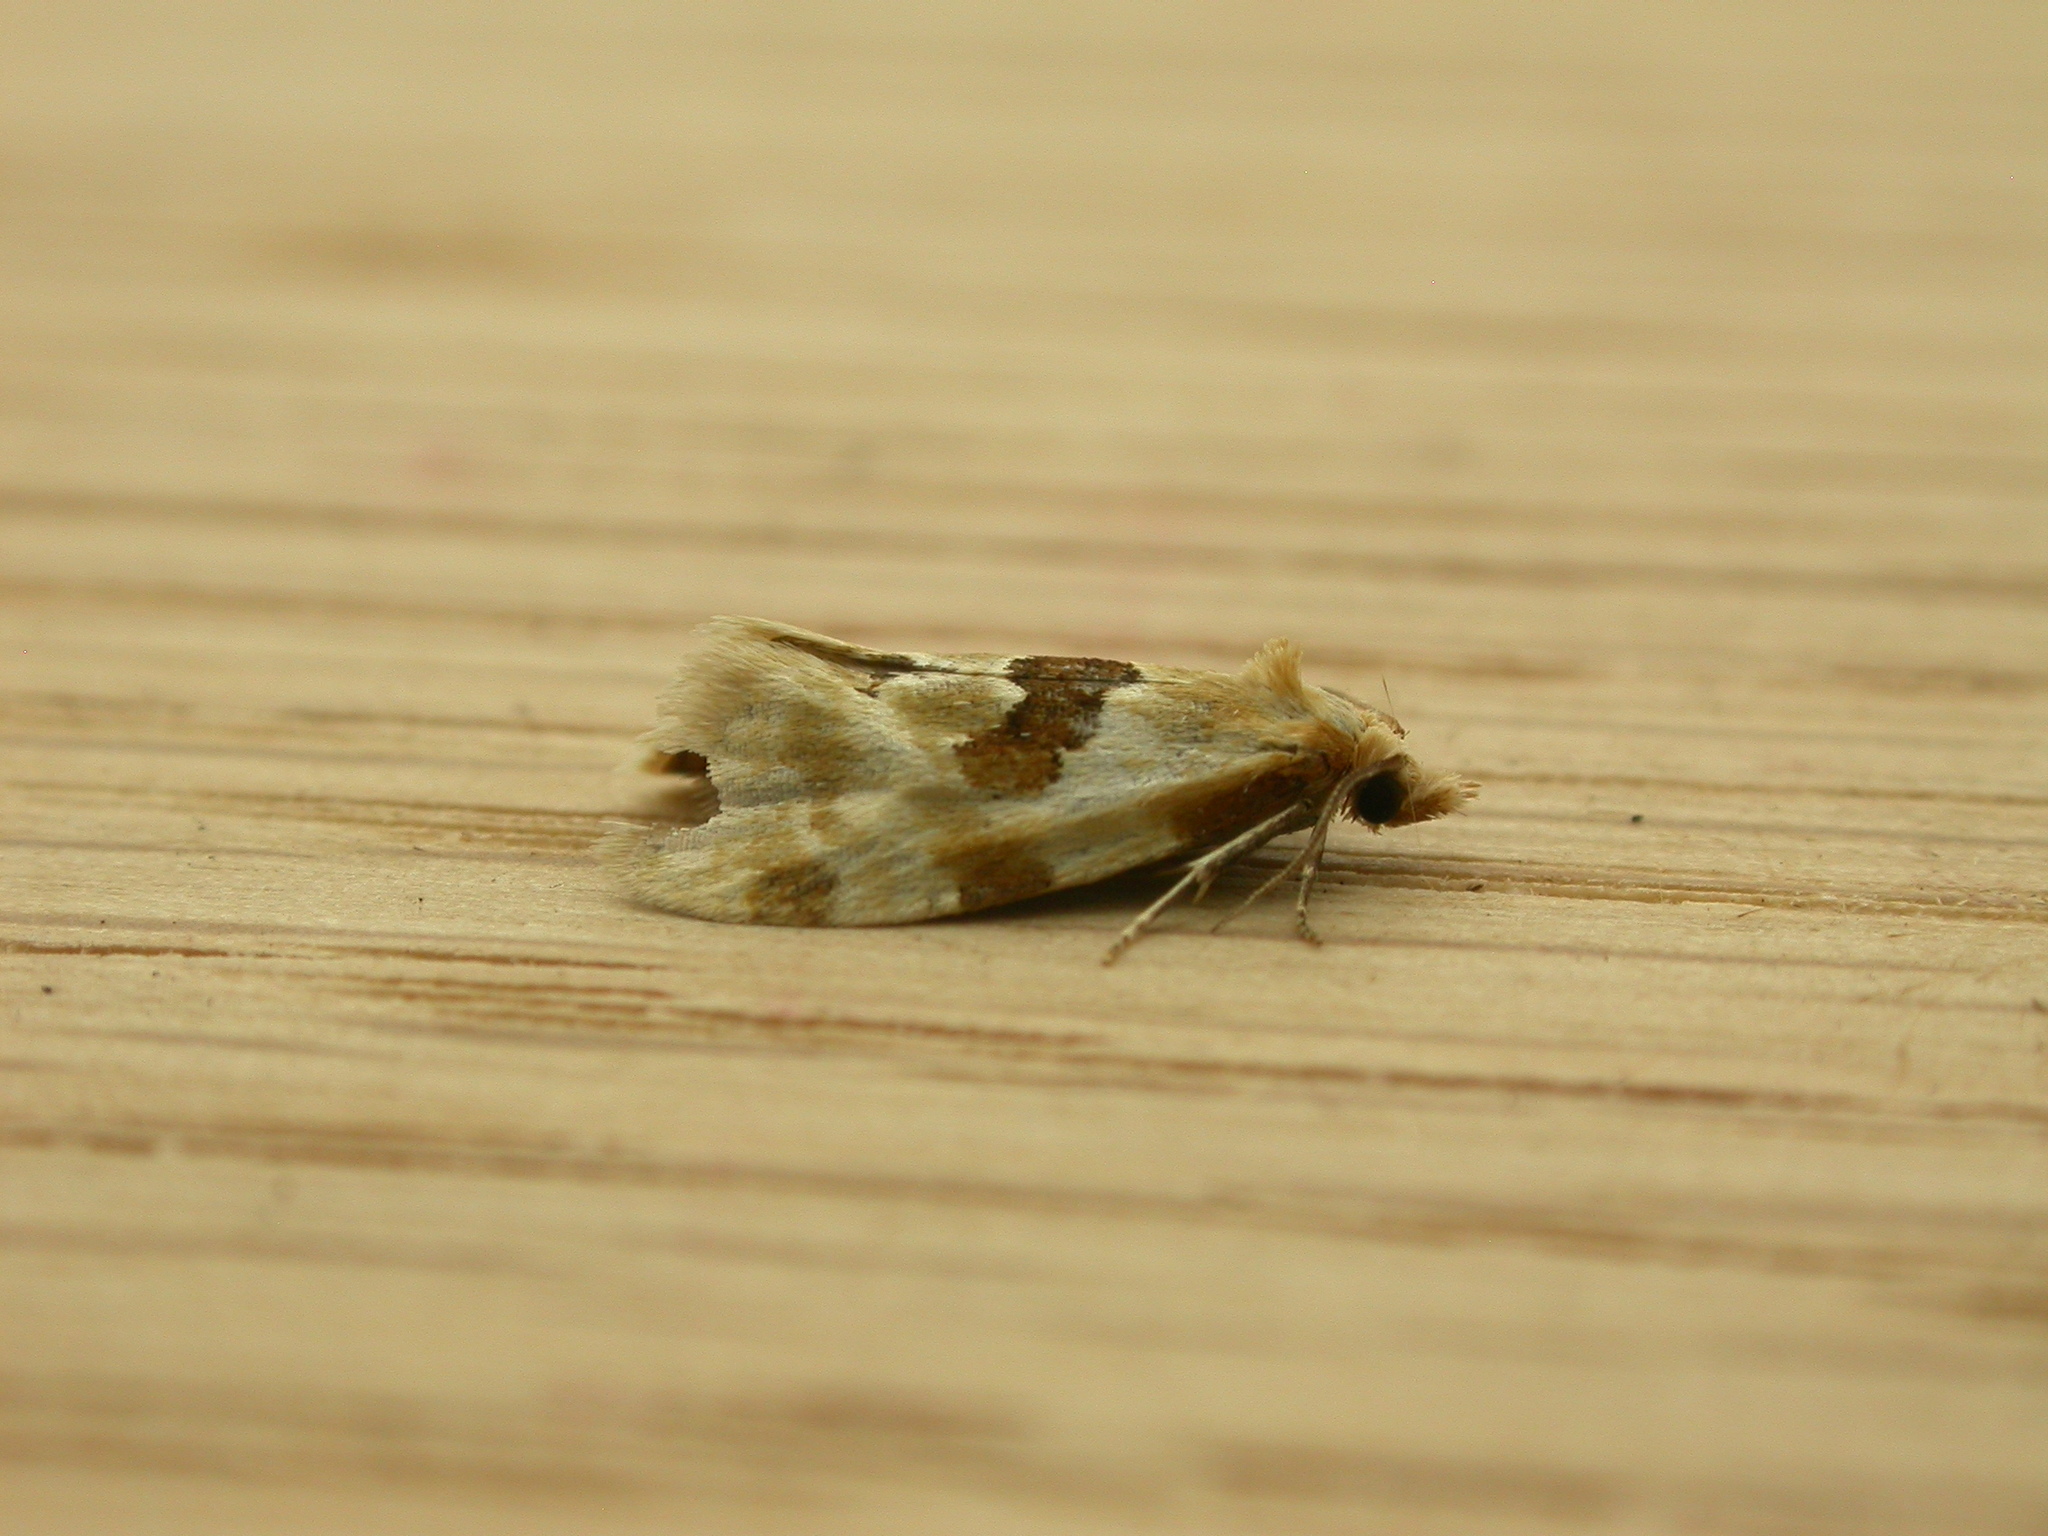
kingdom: Animalia
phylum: Arthropoda
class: Insecta
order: Lepidoptera
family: Tortricidae
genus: Aethes
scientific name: Aethes rubigana
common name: Burdock conch
